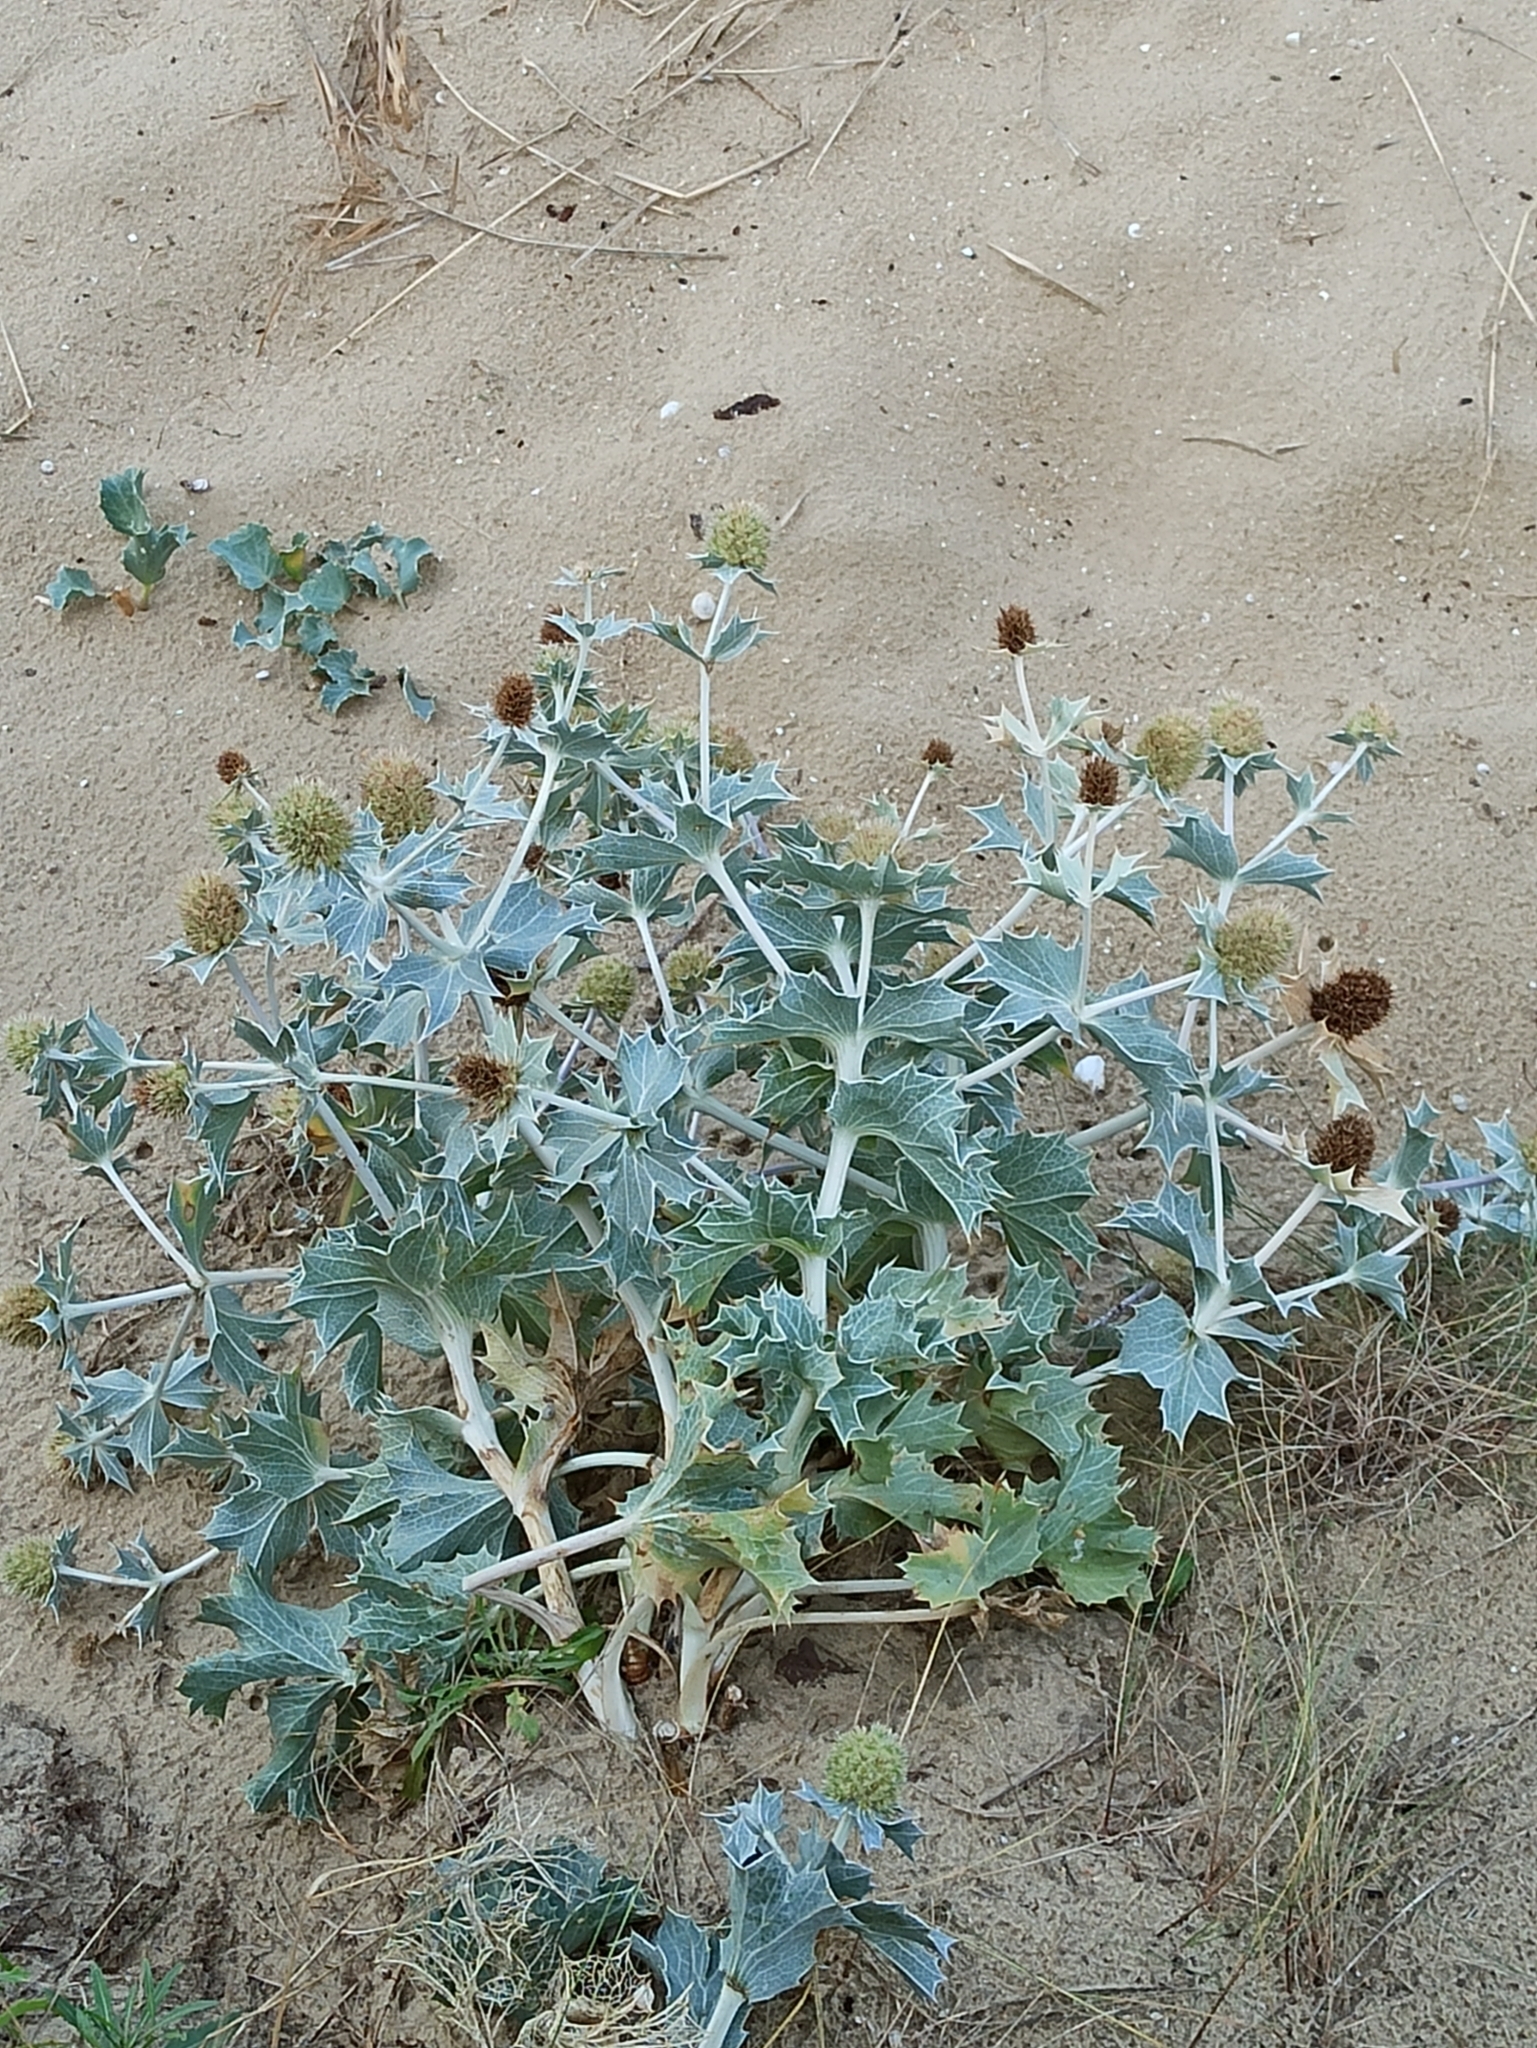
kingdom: Plantae
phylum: Tracheophyta
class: Magnoliopsida
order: Apiales
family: Apiaceae
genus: Eryngium
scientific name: Eryngium maritimum
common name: Sea-holly
